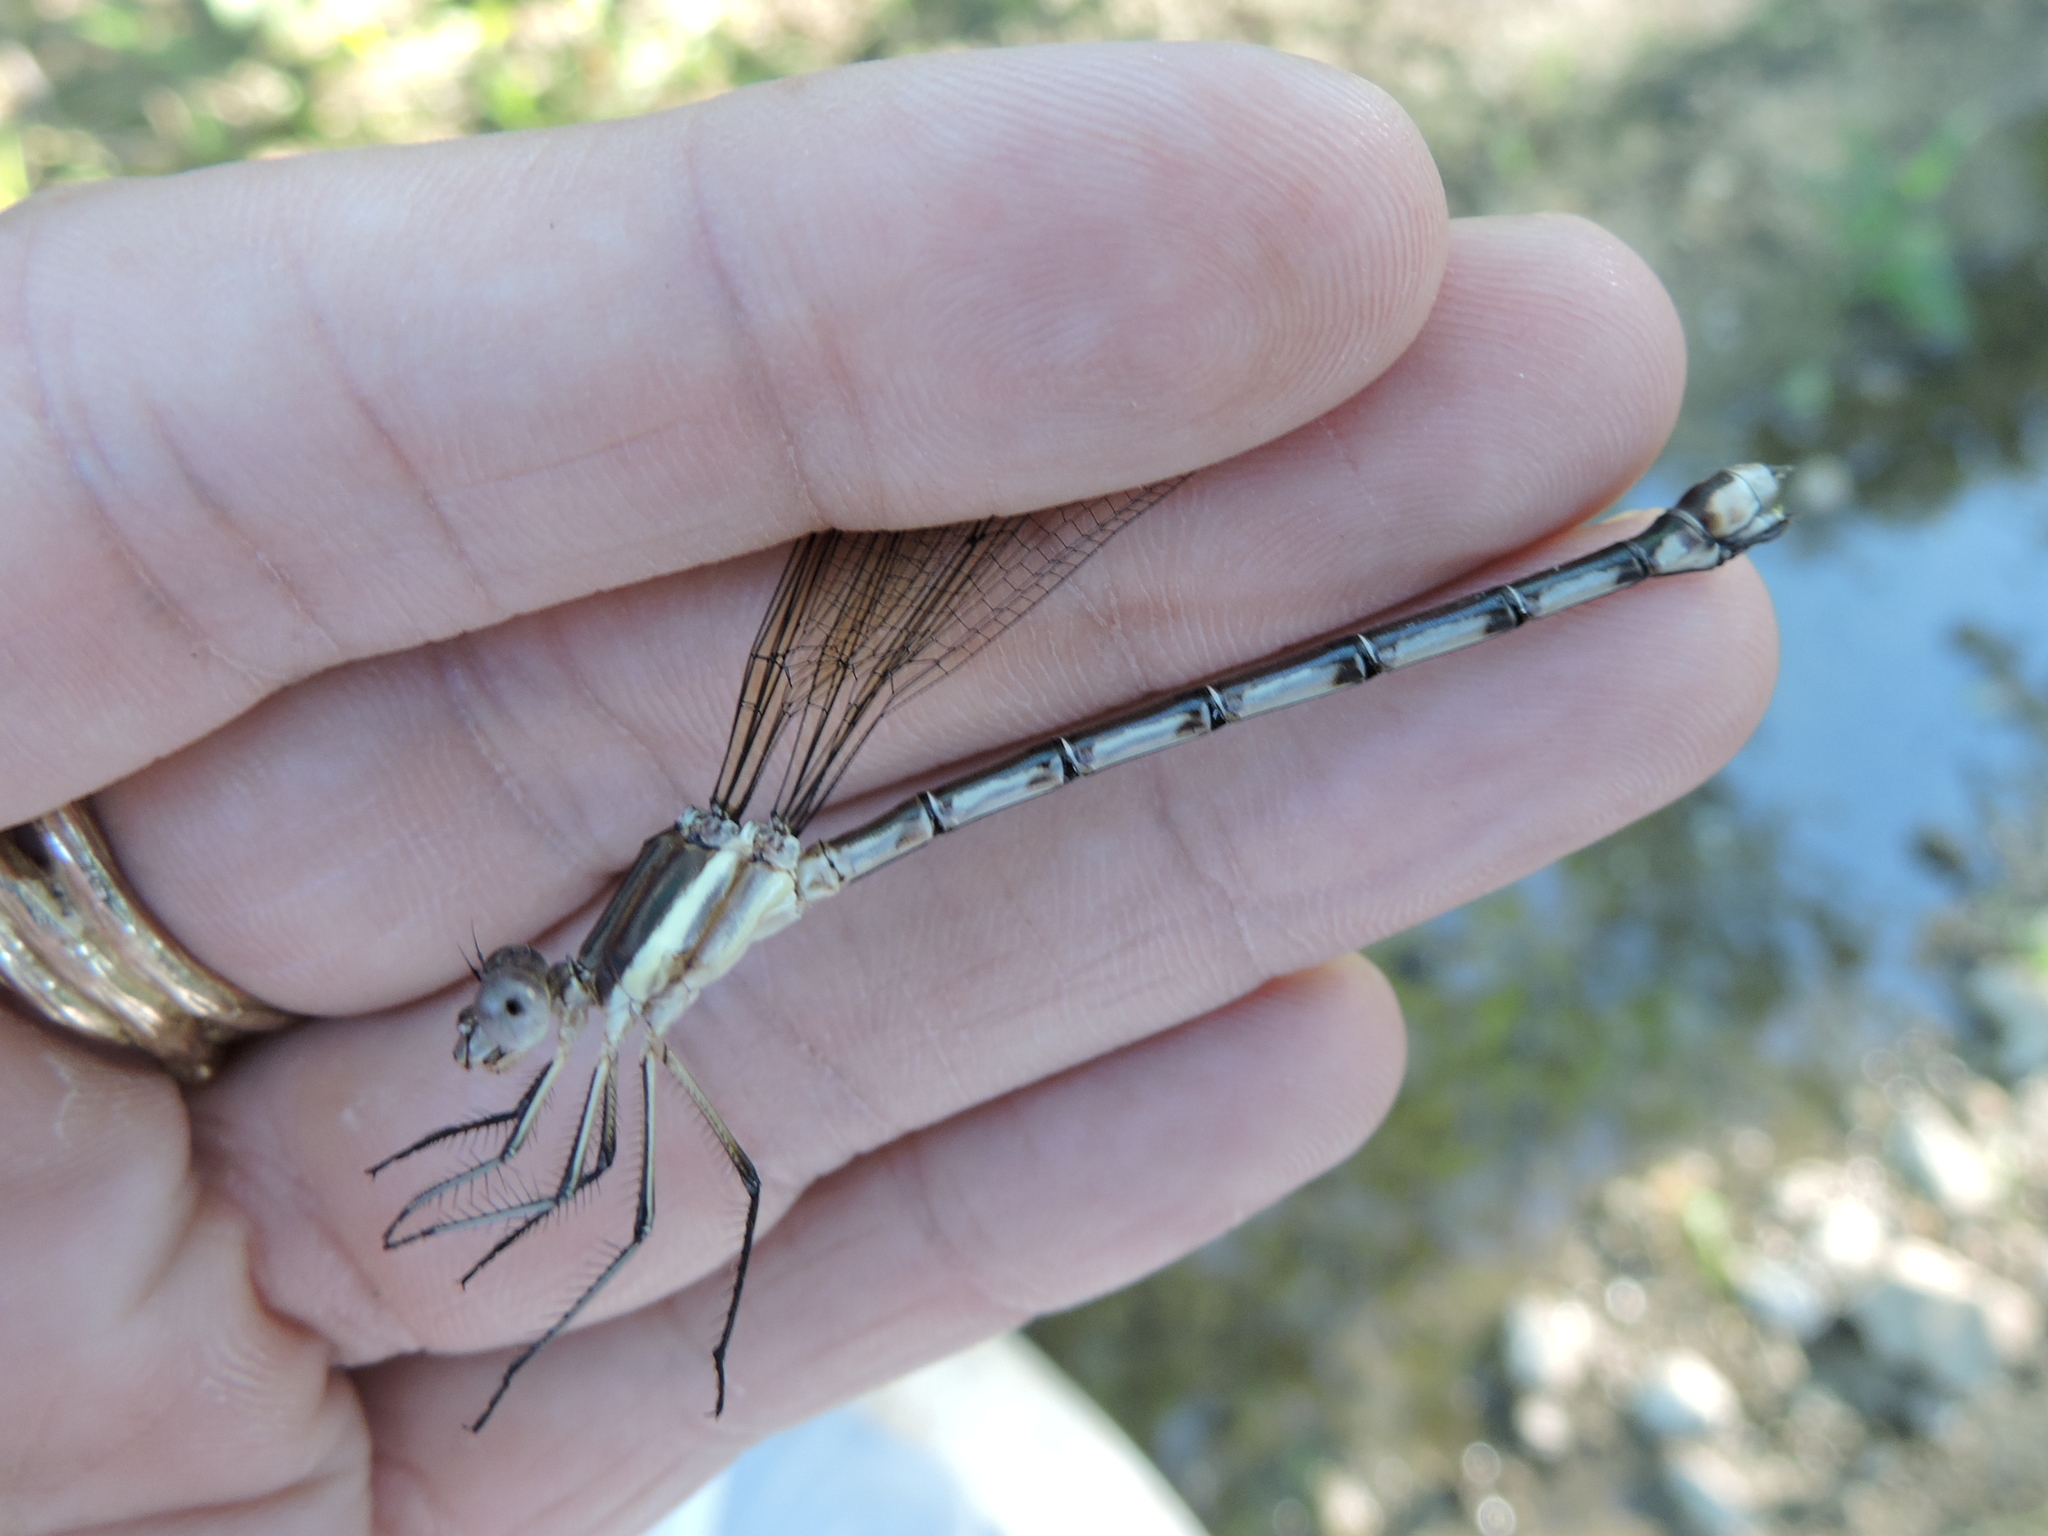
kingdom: Animalia
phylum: Arthropoda
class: Insecta
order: Odonata
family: Lestidae
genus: Archilestes
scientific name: Archilestes grandis
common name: Great spreadwing
